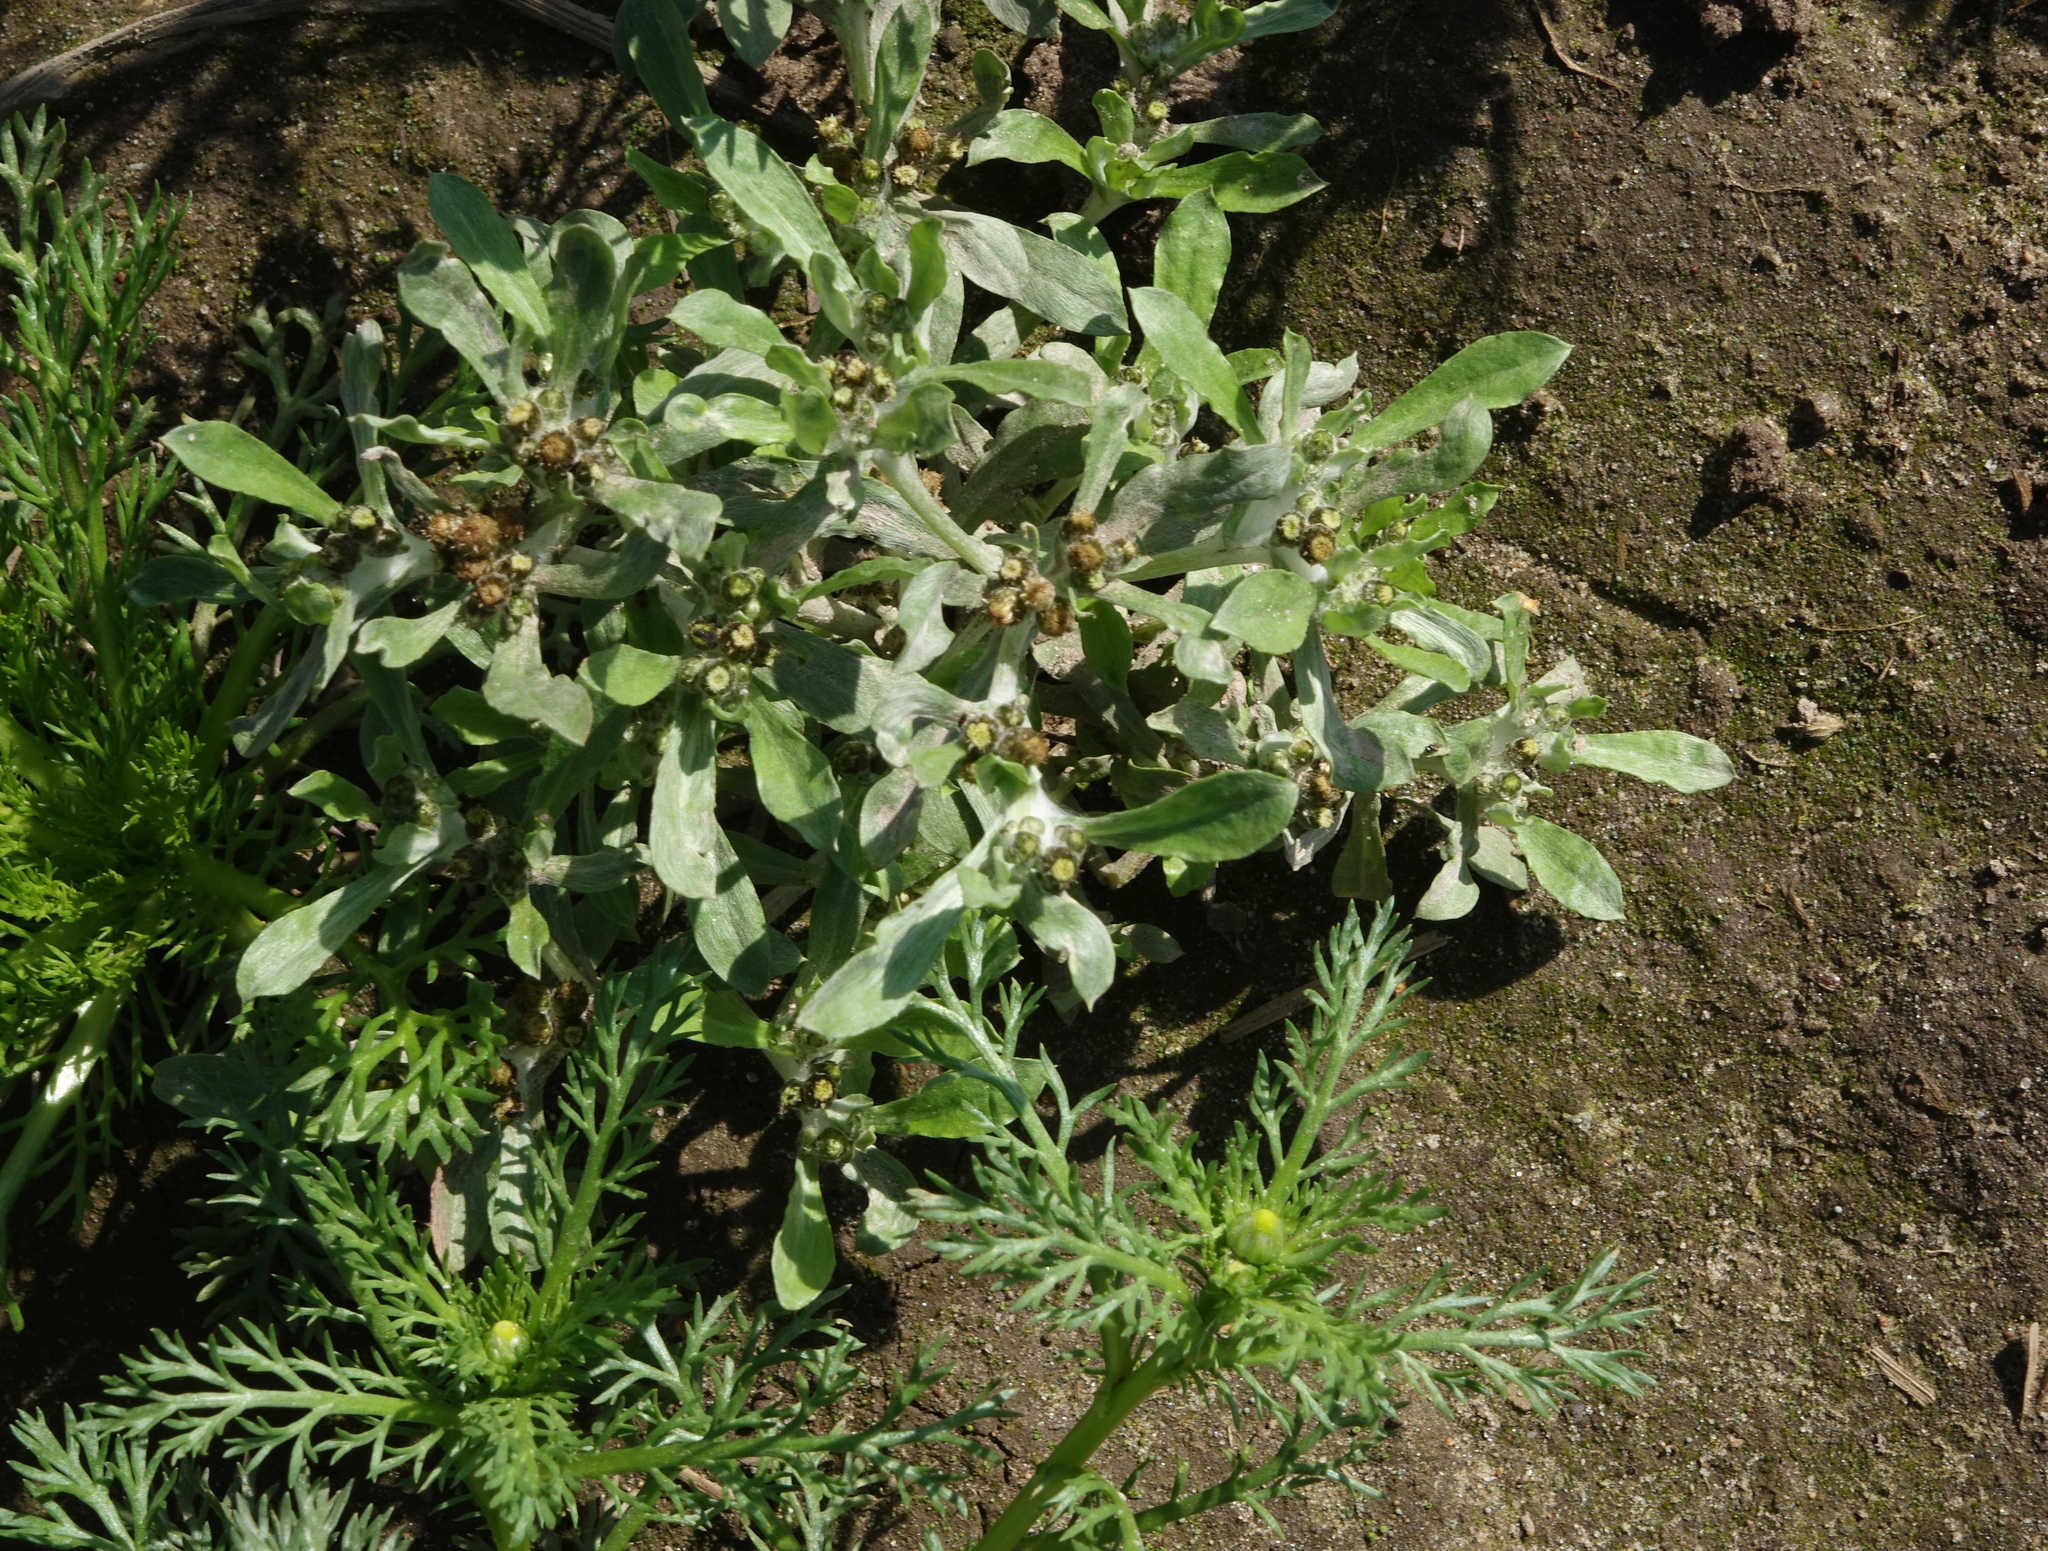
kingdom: Plantae
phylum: Tracheophyta
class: Magnoliopsida
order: Asterales
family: Asteraceae
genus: Gnaphalium
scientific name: Gnaphalium uliginosum
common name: Marsh cudweed
